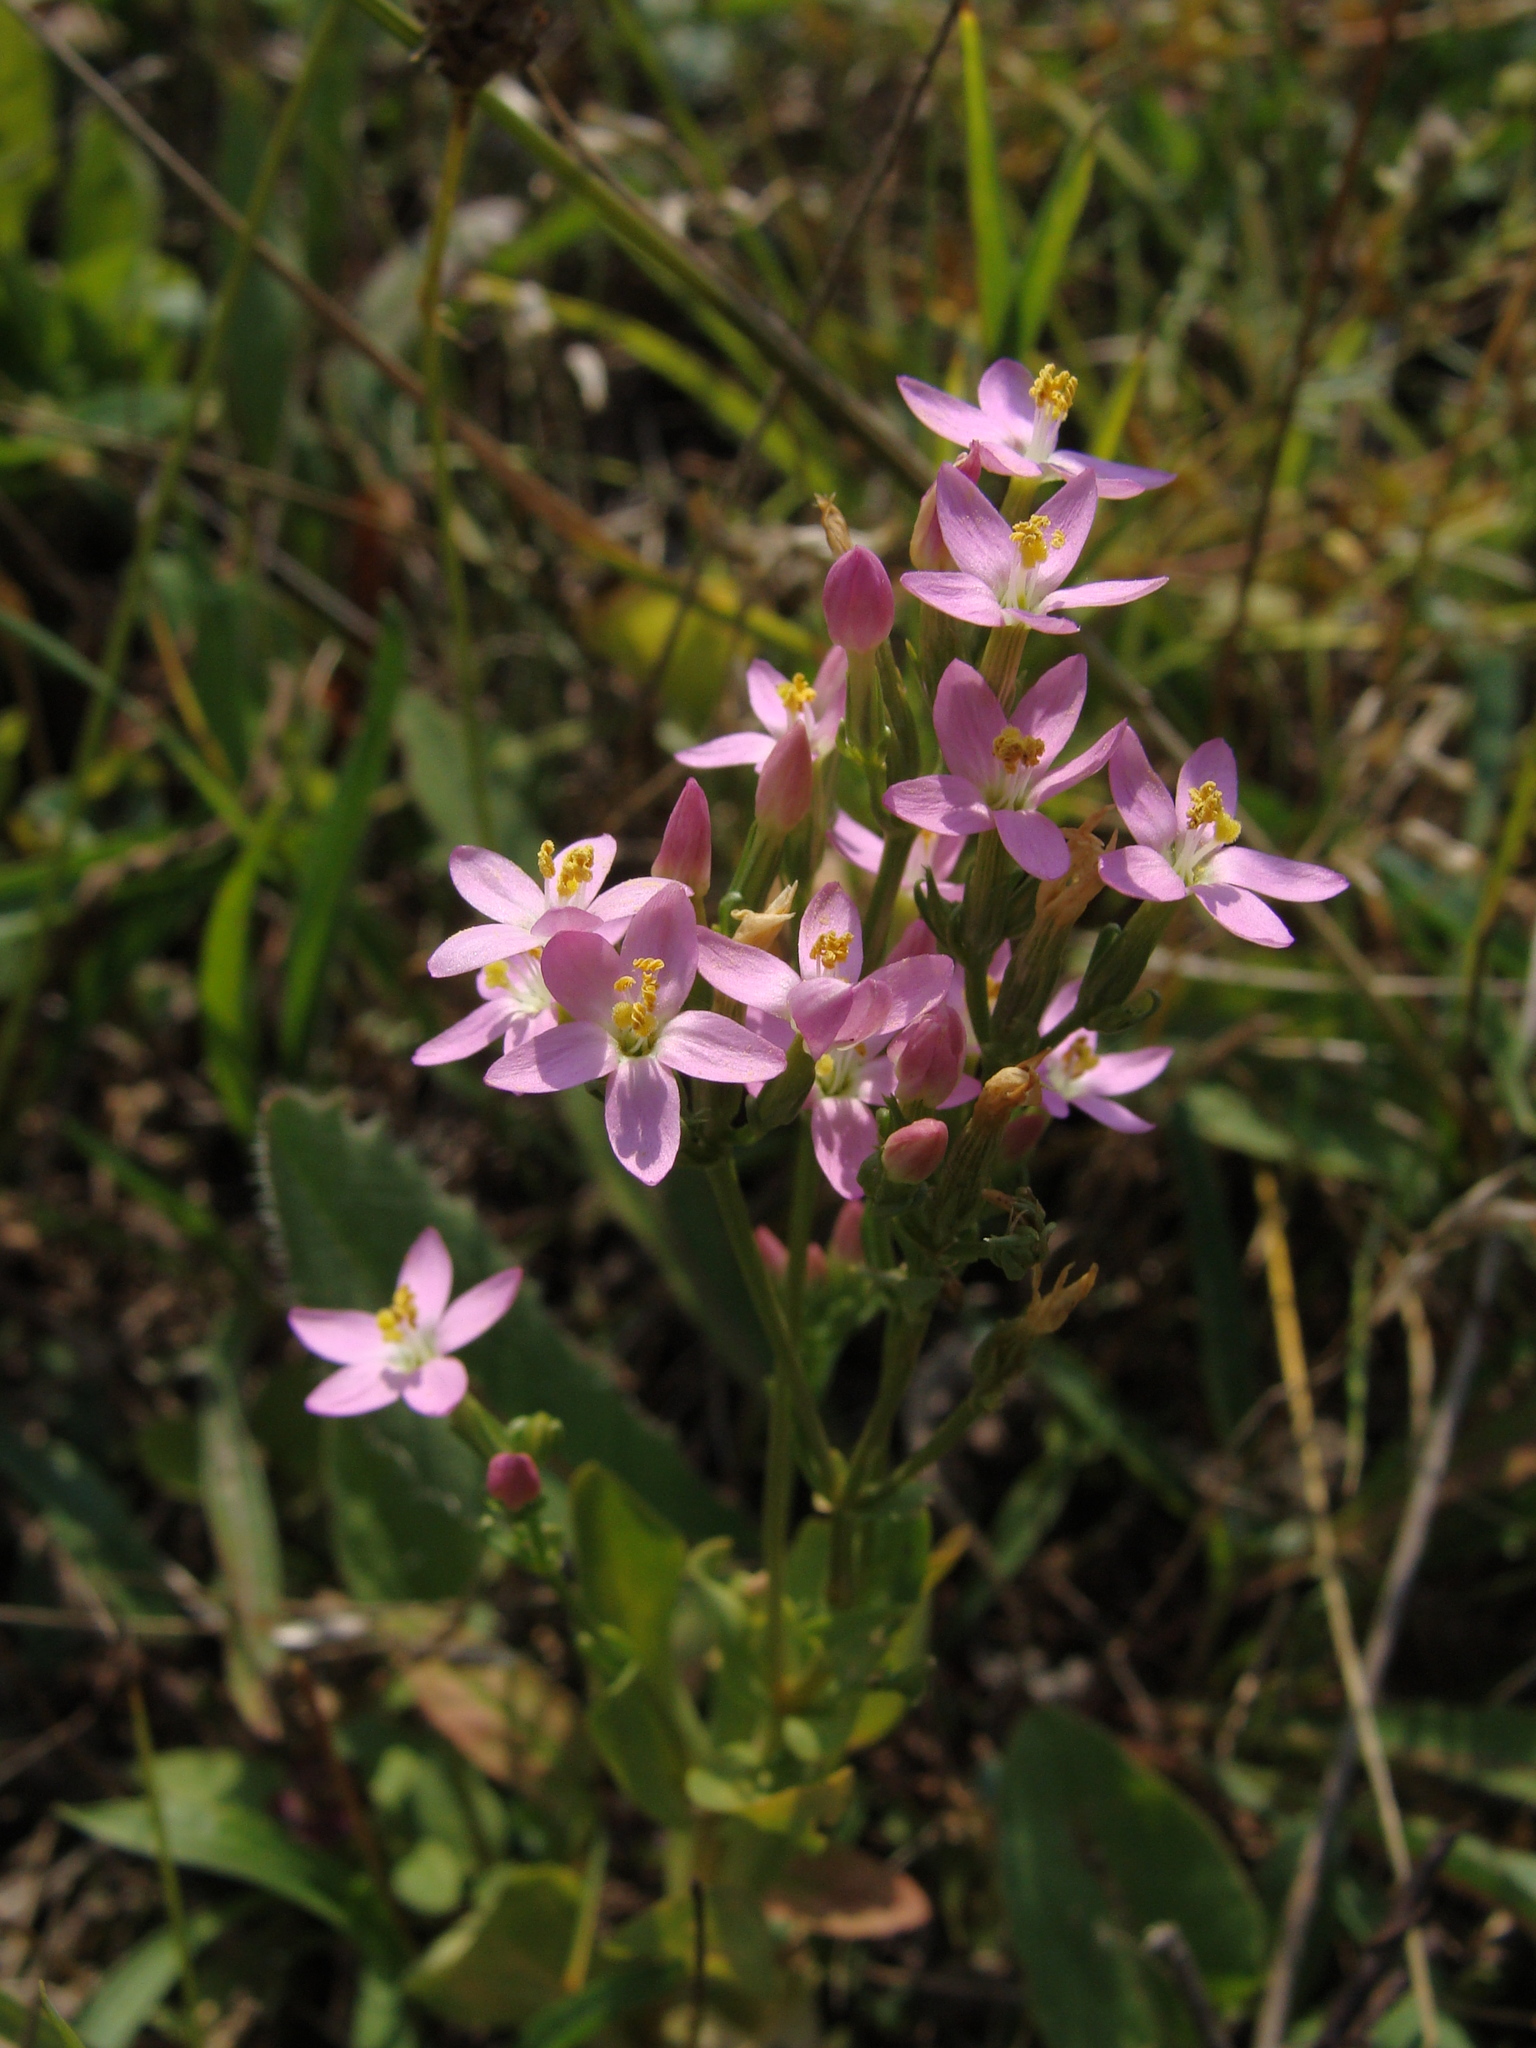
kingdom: Plantae
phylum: Tracheophyta
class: Magnoliopsida
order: Gentianales
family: Gentianaceae
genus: Centaurium
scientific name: Centaurium erythraea
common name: Common centaury
